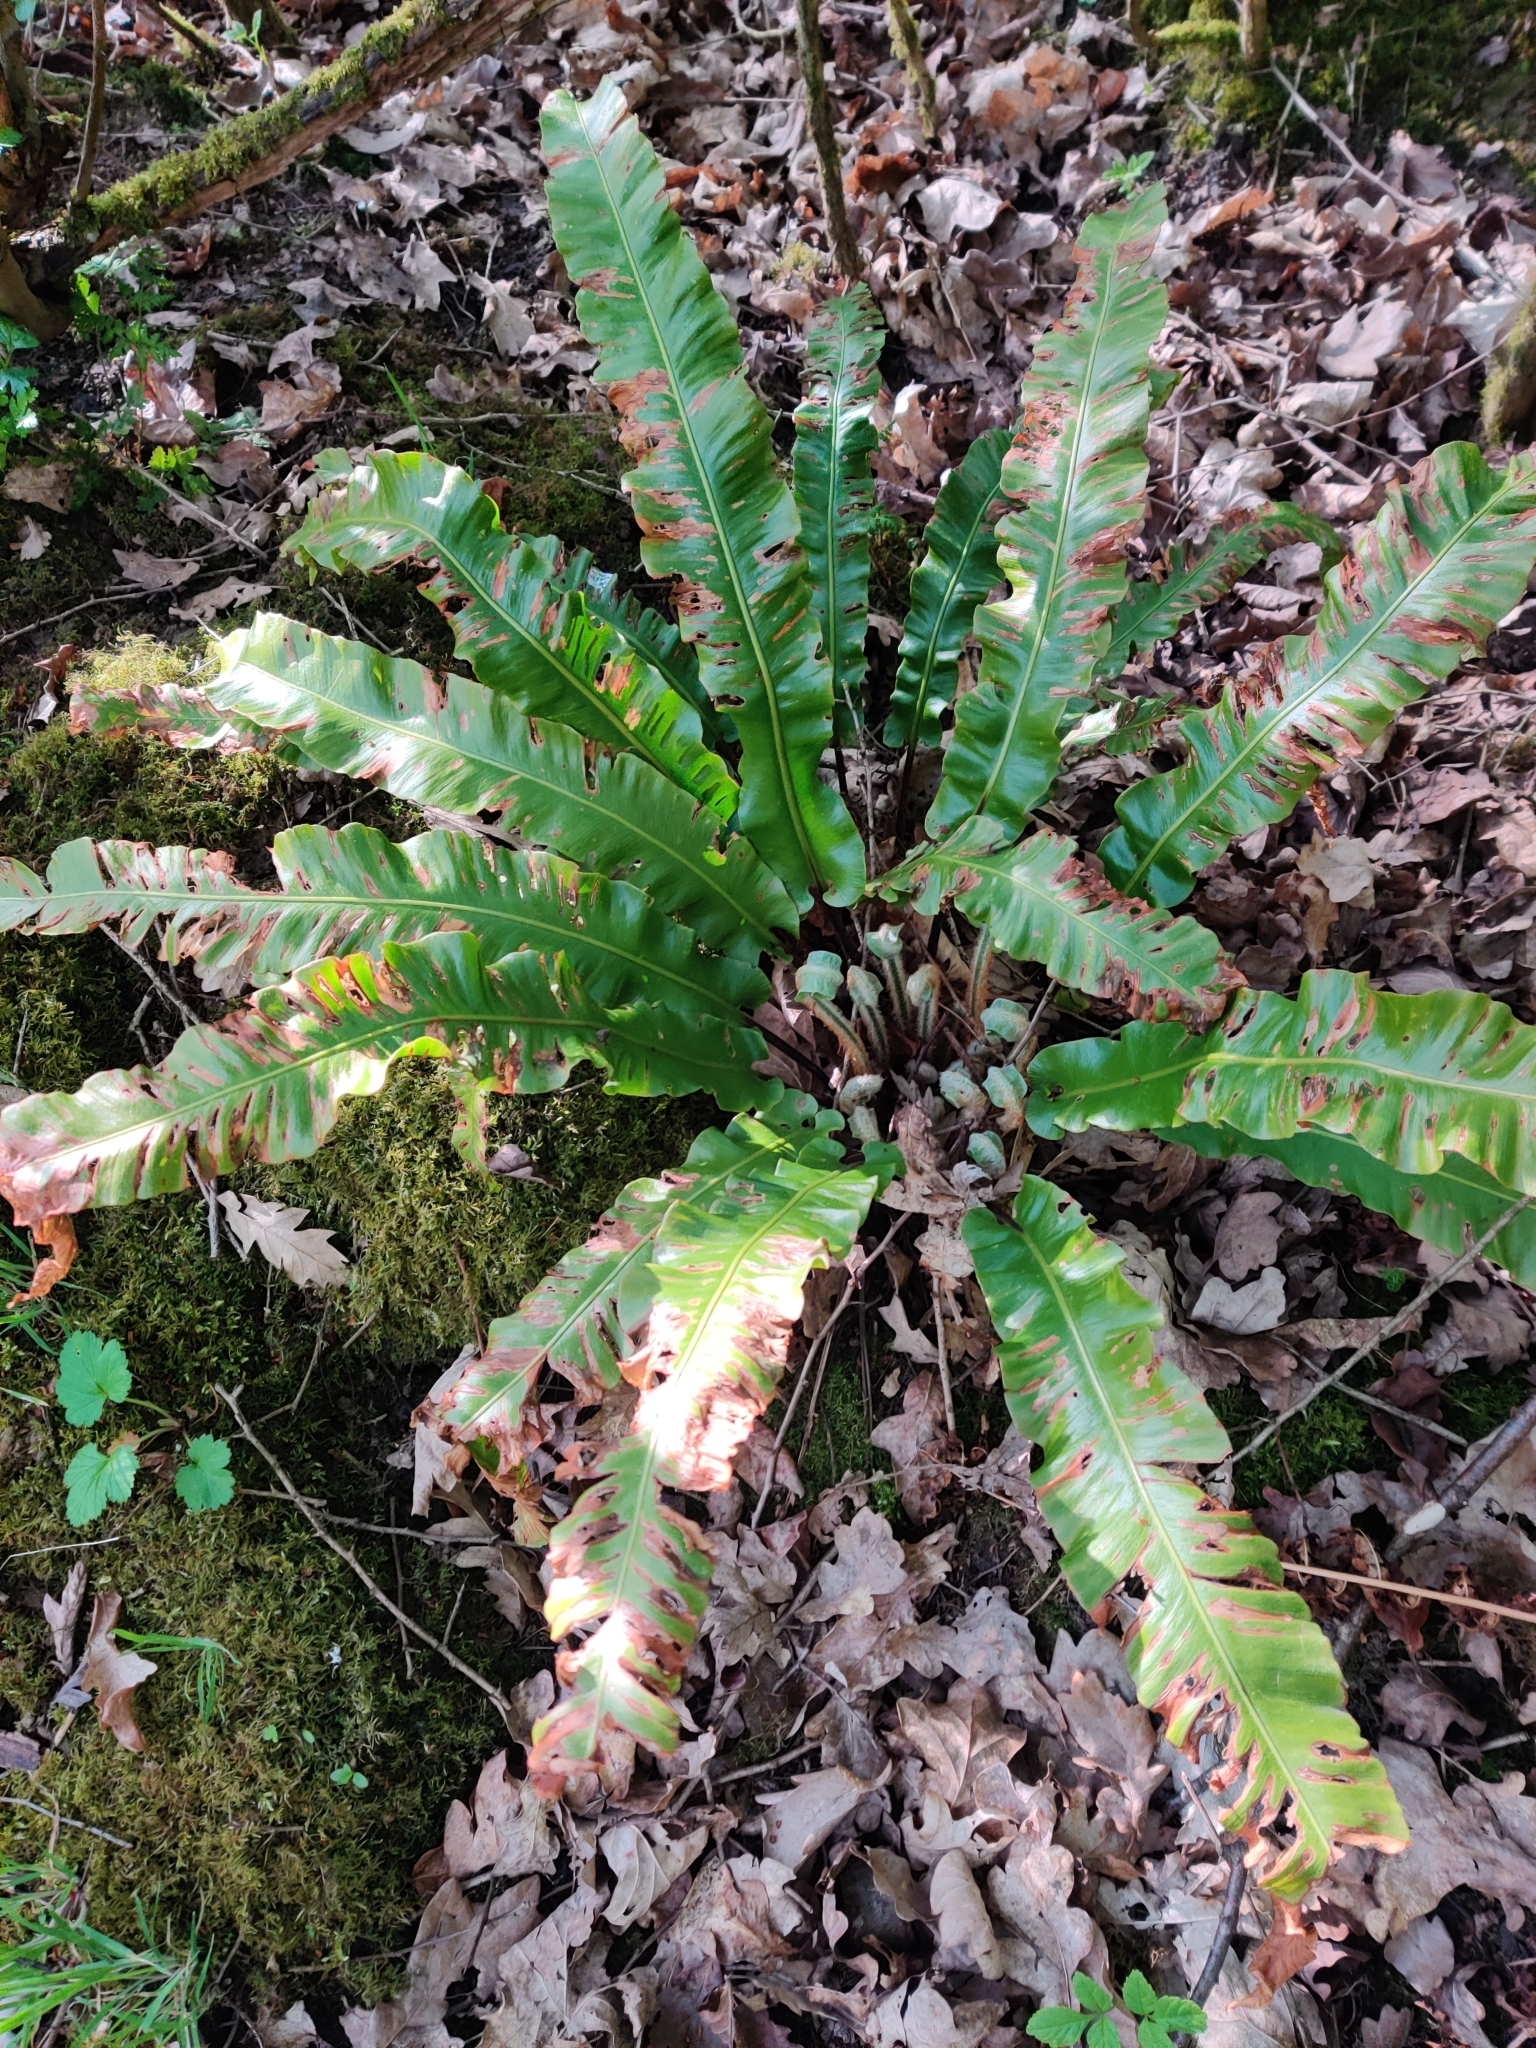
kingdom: Plantae
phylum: Tracheophyta
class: Polypodiopsida
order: Polypodiales
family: Aspleniaceae
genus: Asplenium
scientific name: Asplenium scolopendrium
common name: Hart's-tongue fern
